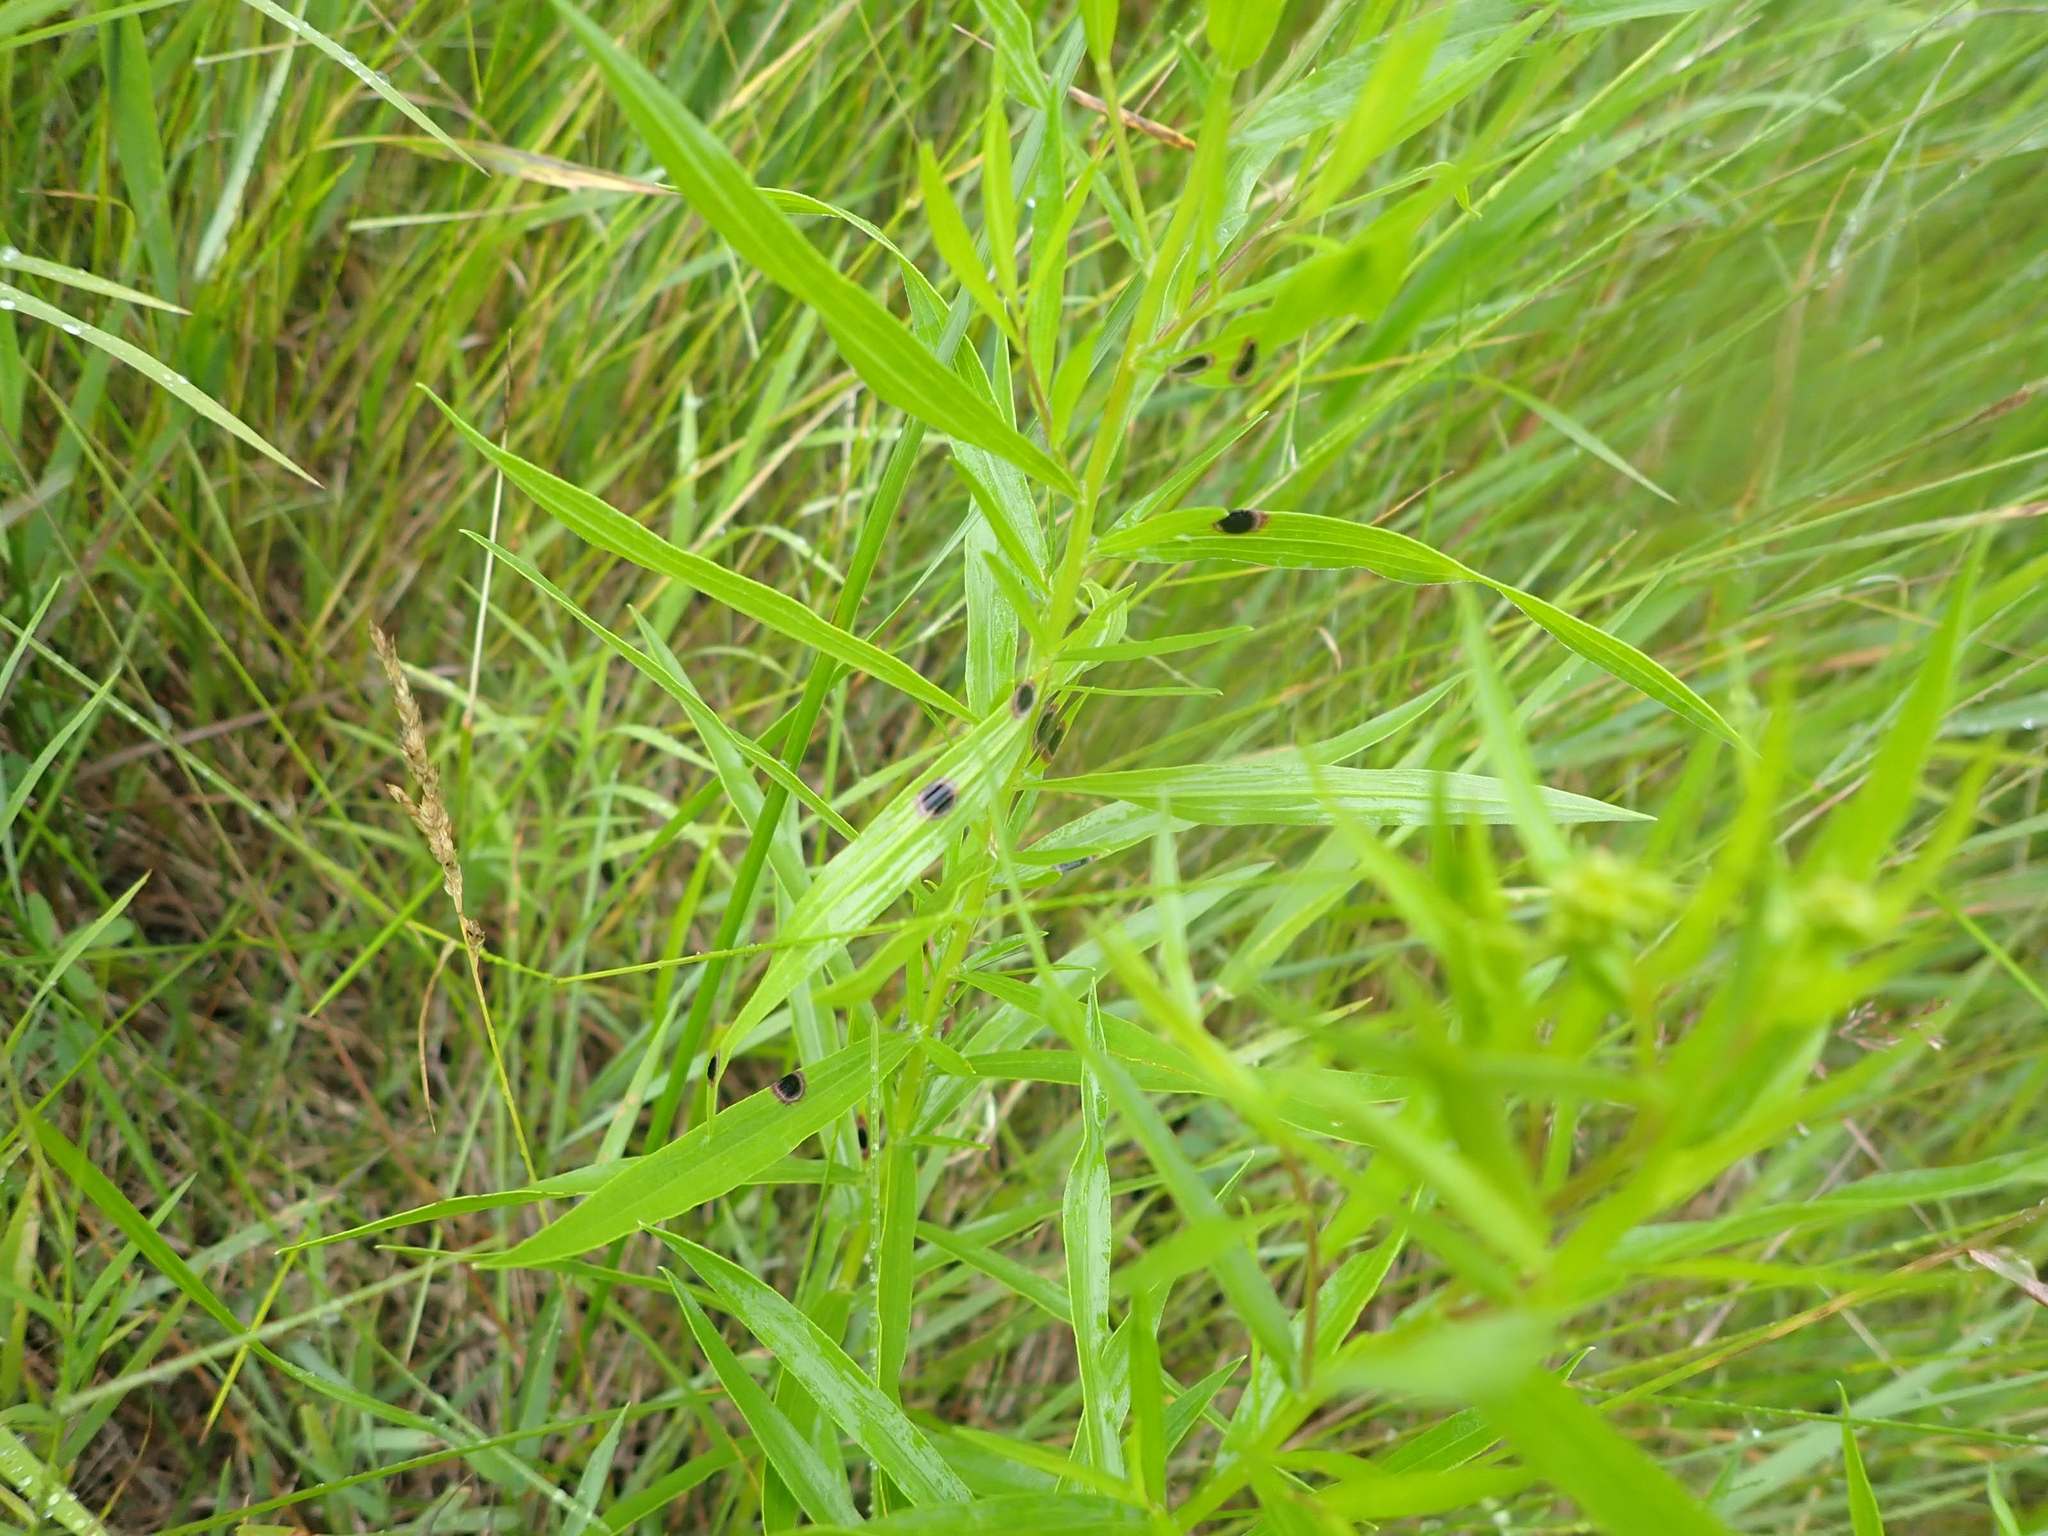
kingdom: Animalia
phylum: Arthropoda
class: Insecta
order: Diptera
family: Cecidomyiidae
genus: Asteromyia
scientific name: Asteromyia euthamiae
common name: Euthamia leaf gall midge
